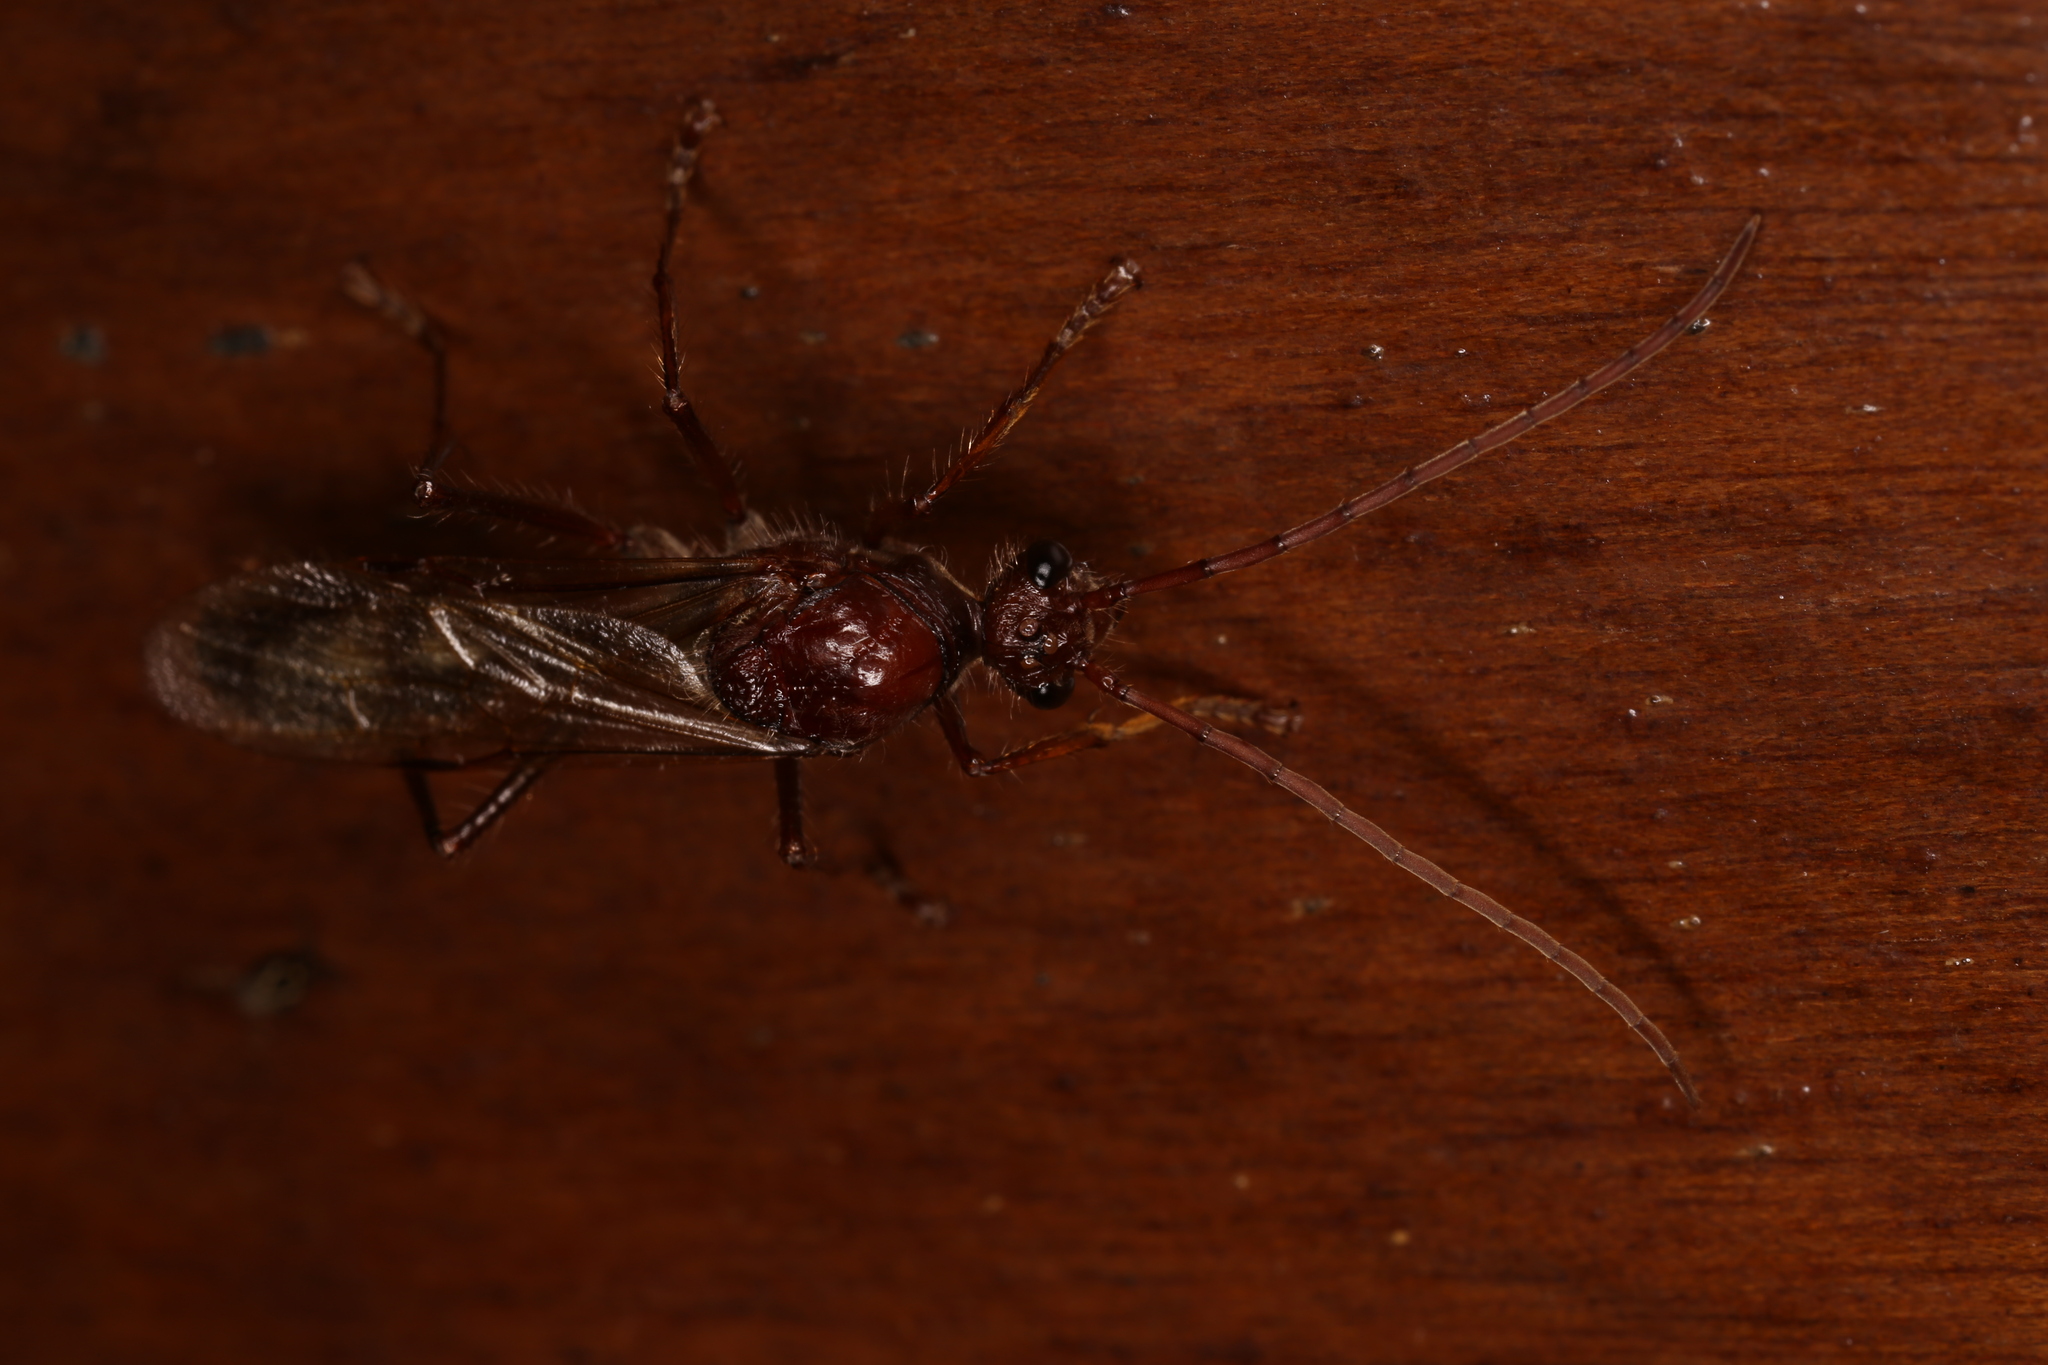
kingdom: Animalia
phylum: Arthropoda
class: Insecta
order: Hymenoptera
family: Formicidae
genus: Paraponera
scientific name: Paraponera clavata
